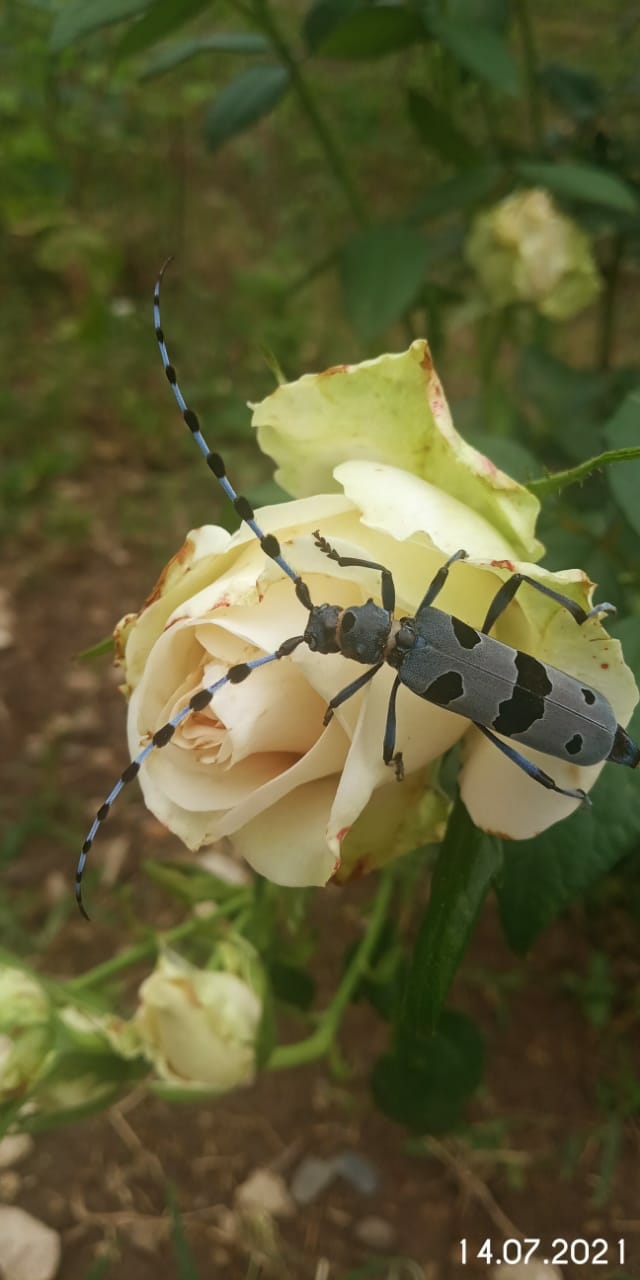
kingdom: Animalia
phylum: Arthropoda
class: Insecta
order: Coleoptera
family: Cerambycidae
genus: Rosalia
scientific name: Rosalia alpina
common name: Rosalia longicorn
